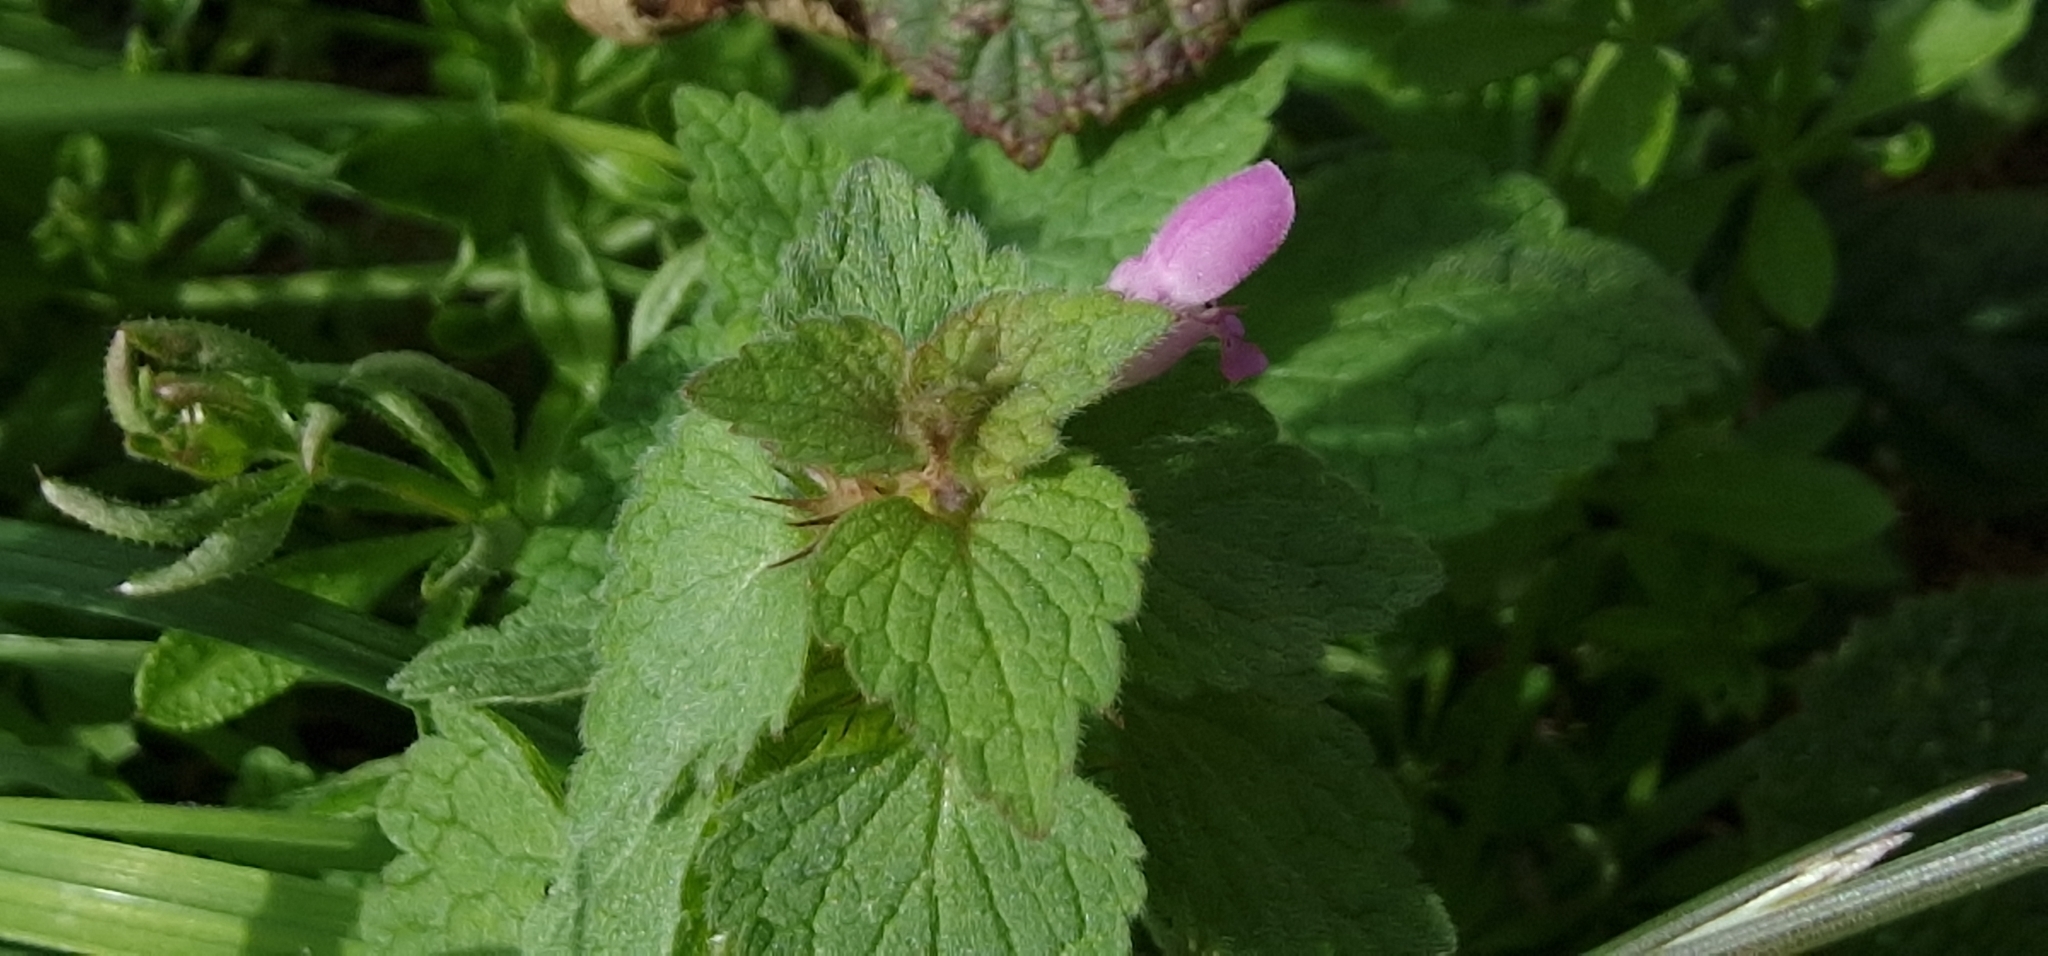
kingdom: Plantae
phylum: Tracheophyta
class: Magnoliopsida
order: Lamiales
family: Lamiaceae
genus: Lamium
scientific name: Lamium purpureum
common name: Red dead-nettle
